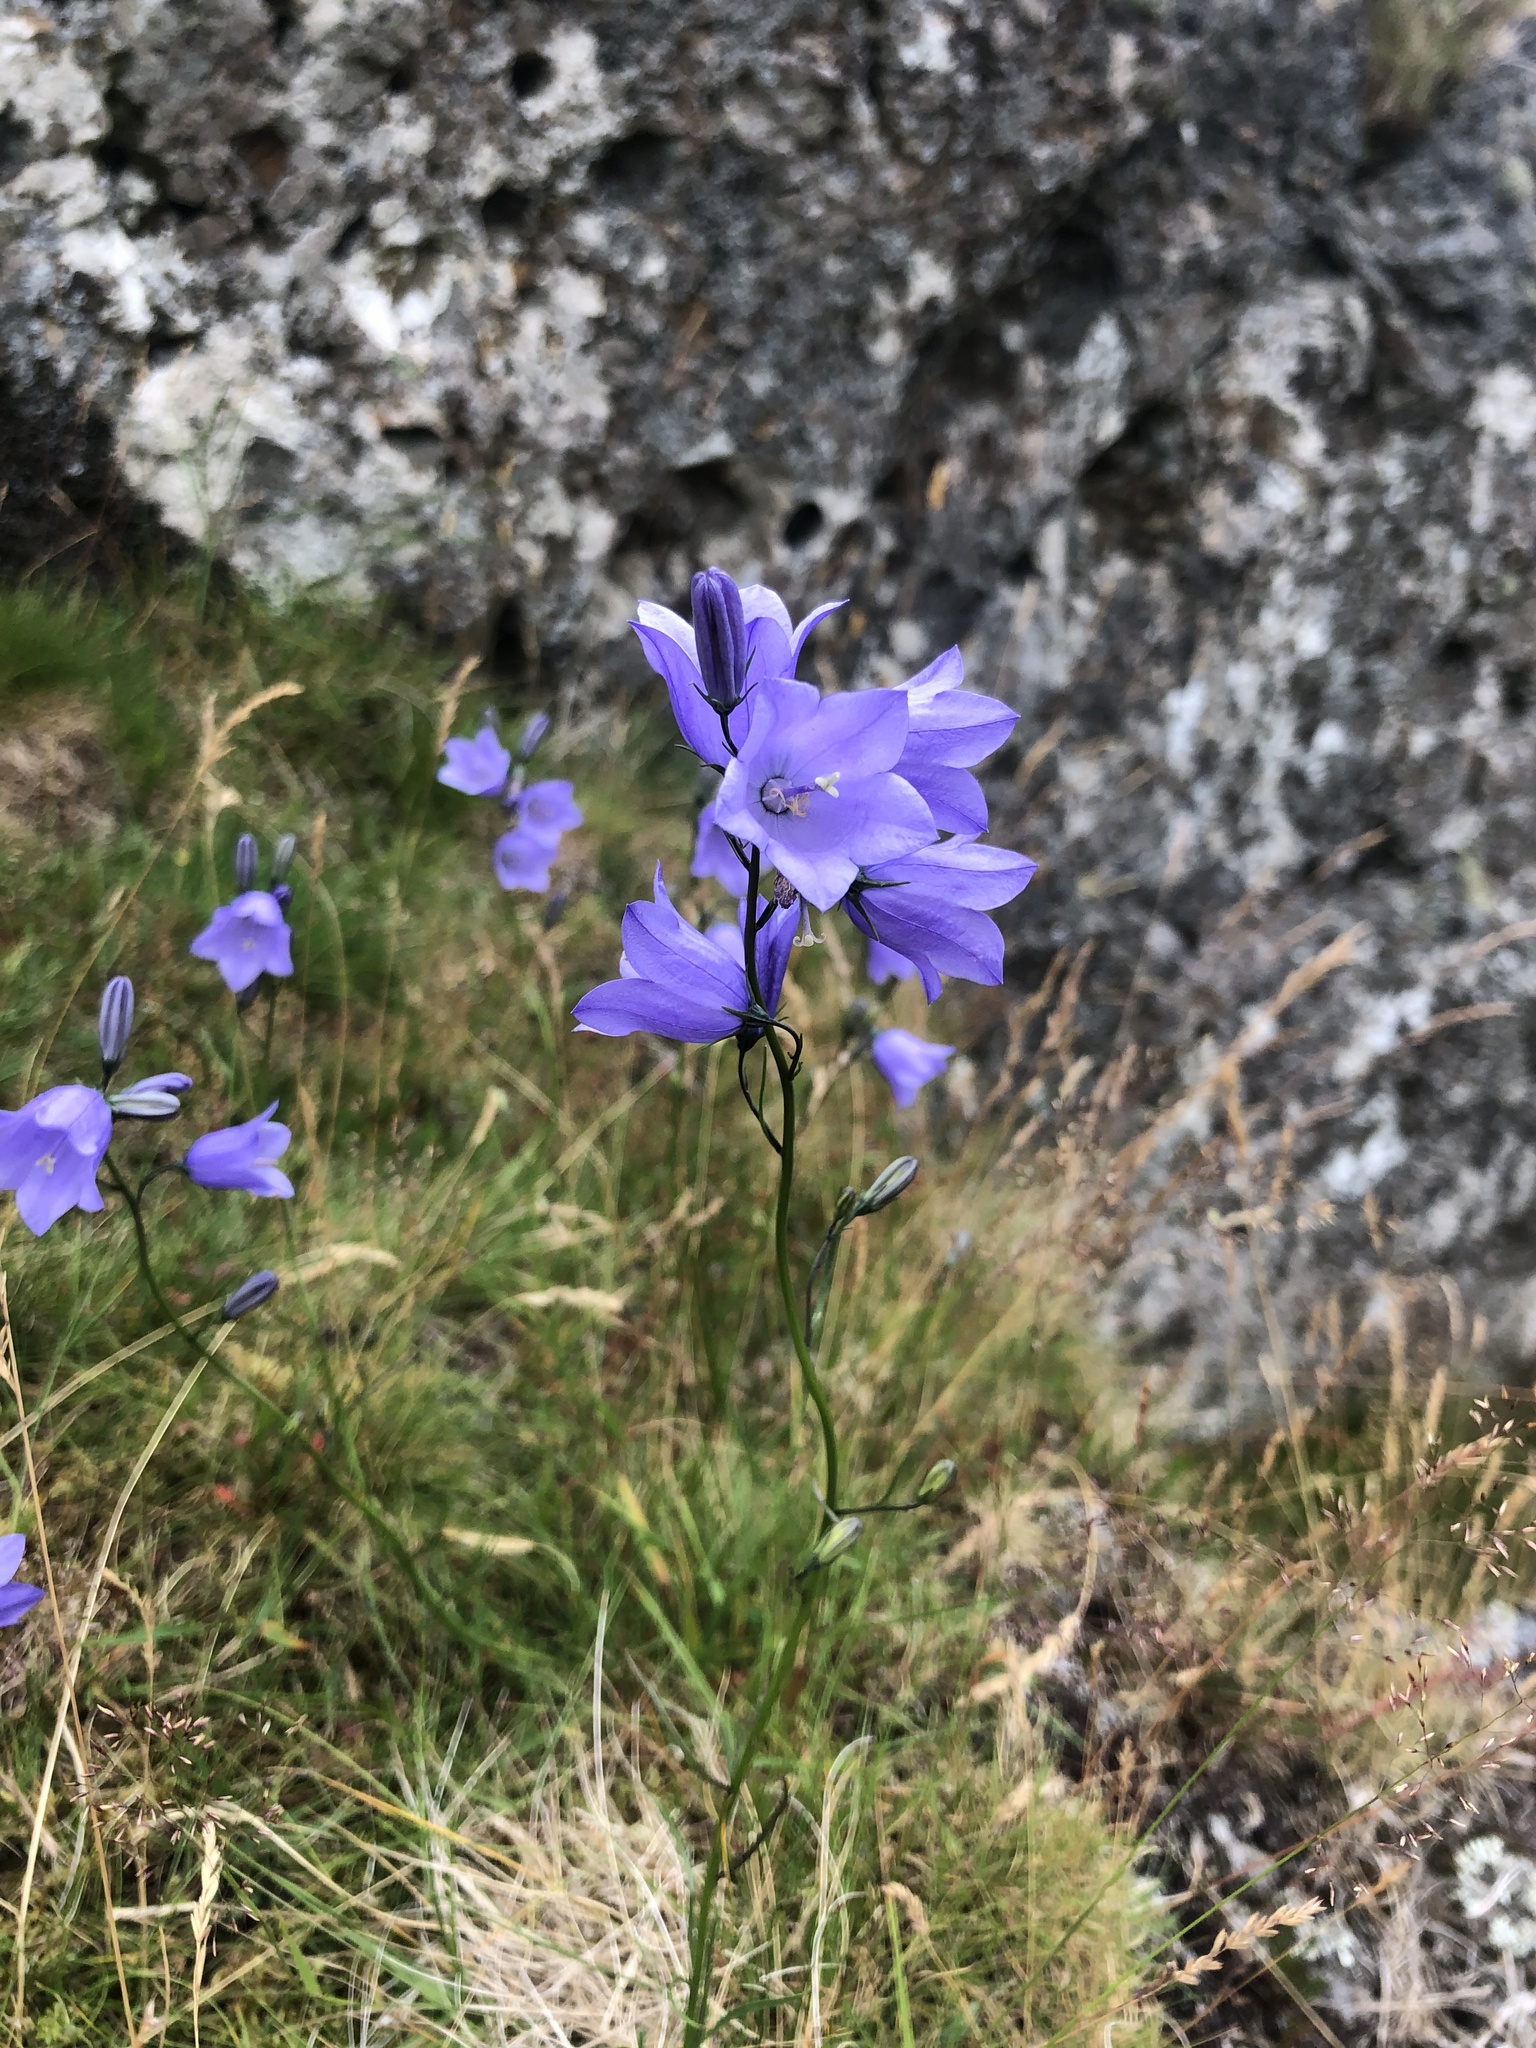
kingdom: Plantae
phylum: Tracheophyta
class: Magnoliopsida
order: Asterales
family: Campanulaceae
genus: Campanula
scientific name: Campanula rotundifolia
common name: Harebell
